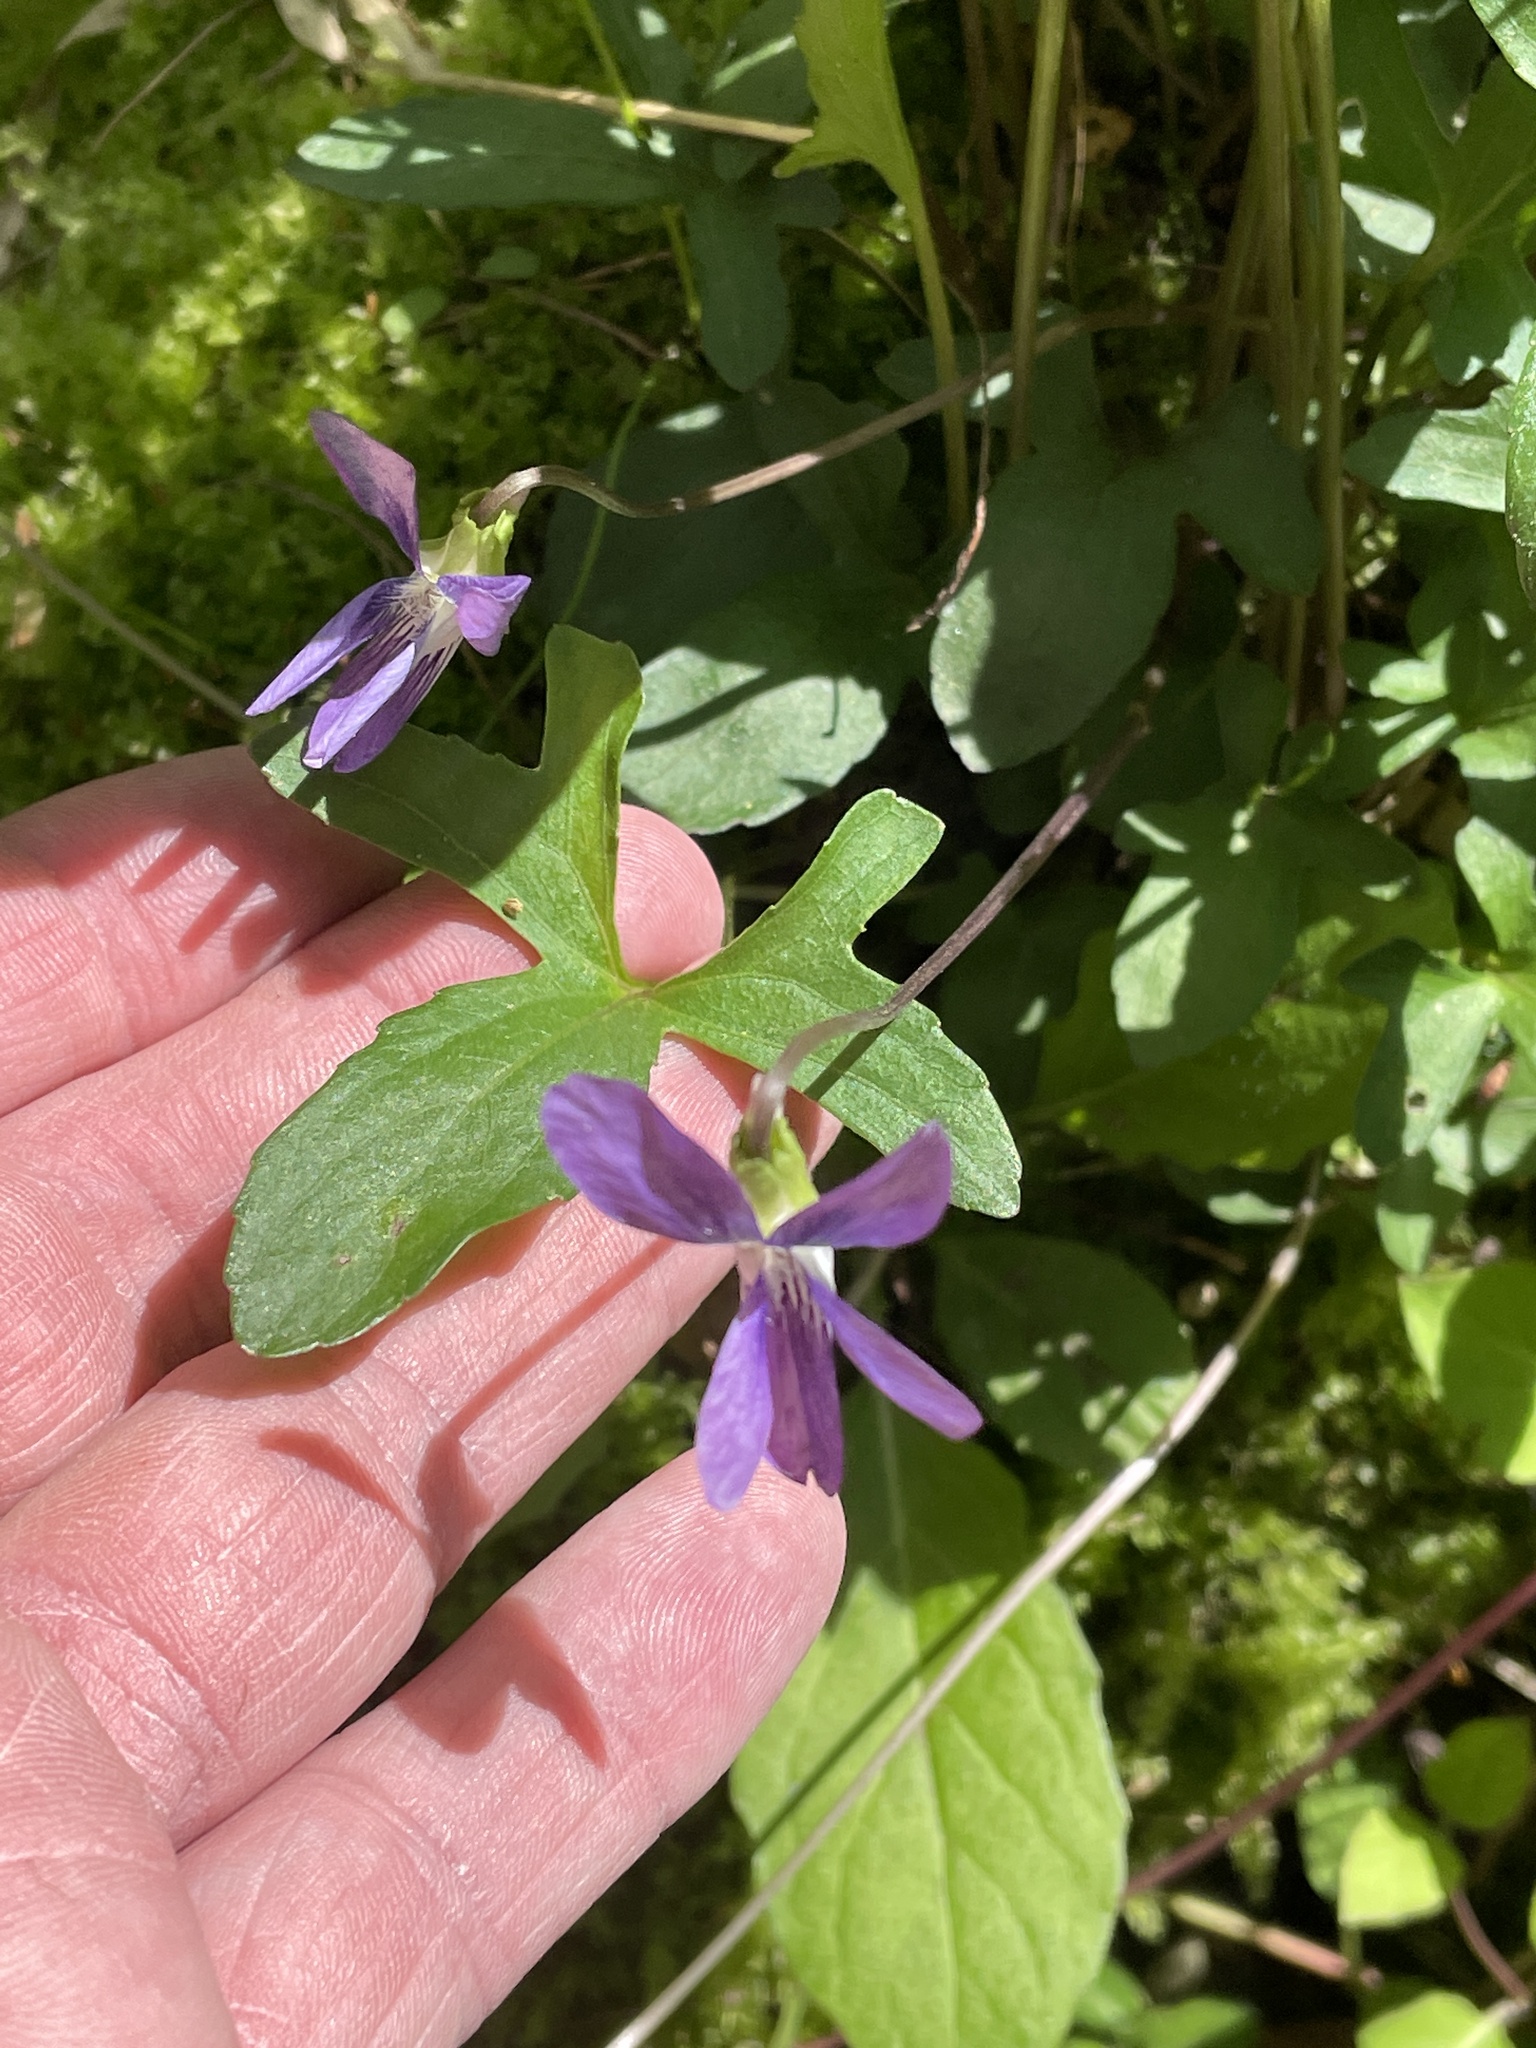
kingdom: Plantae
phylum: Tracheophyta
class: Magnoliopsida
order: Malpighiales
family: Violaceae
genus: Viola
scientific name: Viola palmata
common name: Early blue violet
